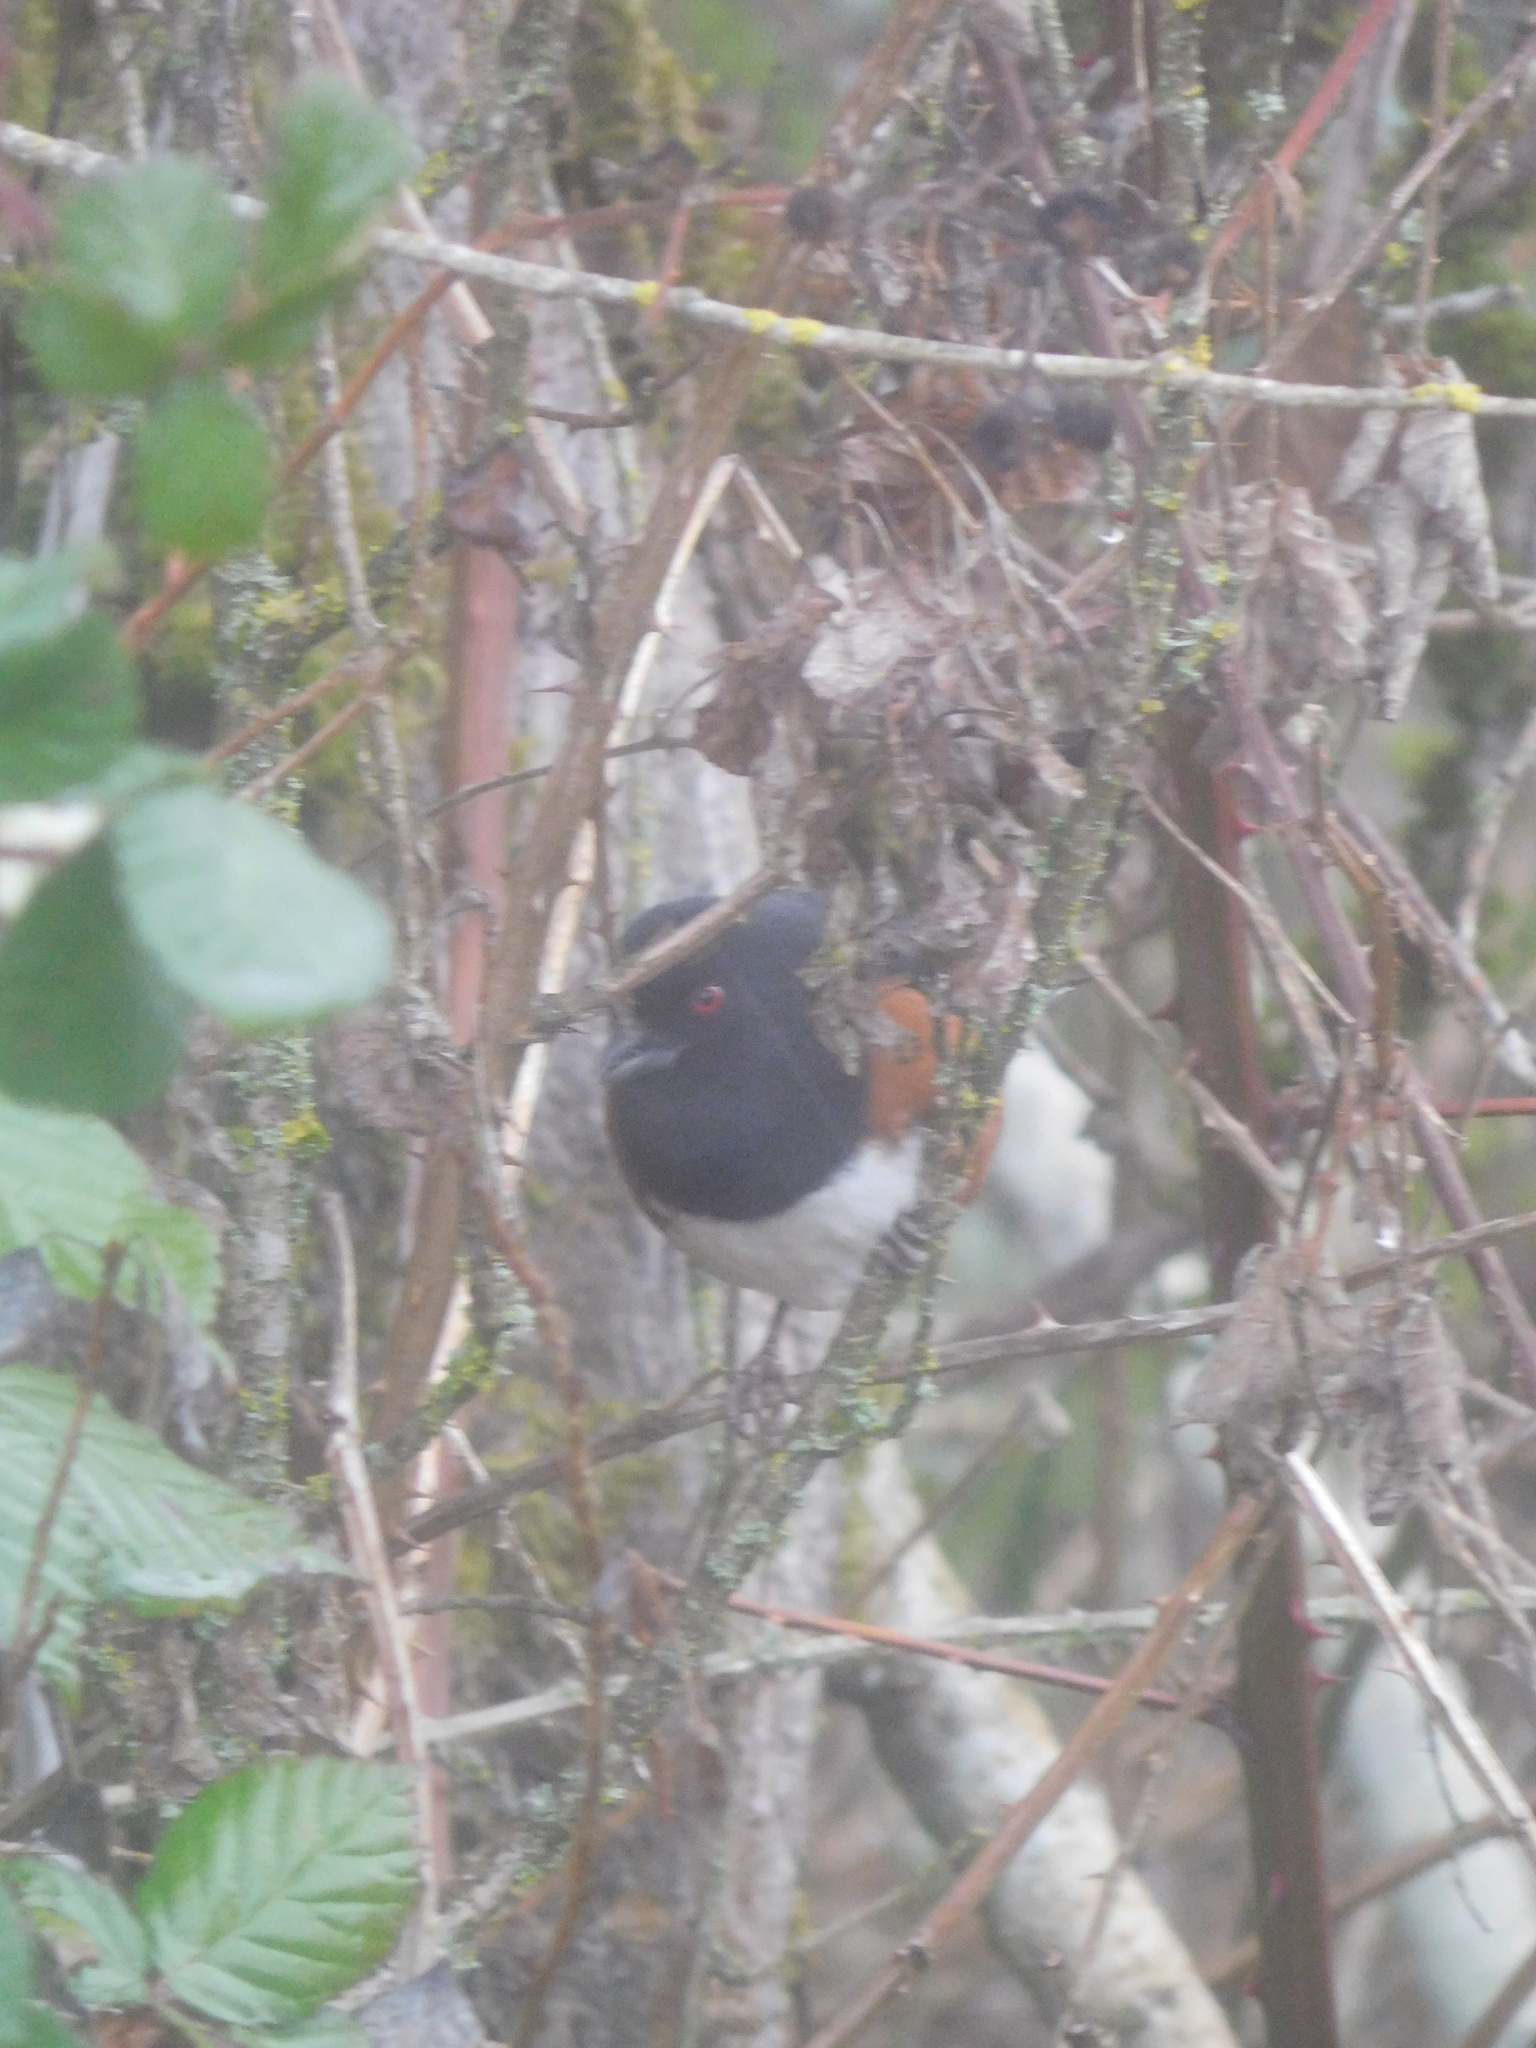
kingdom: Animalia
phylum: Chordata
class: Aves
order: Passeriformes
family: Passerellidae
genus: Pipilo
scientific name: Pipilo maculatus
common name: Spotted towhee
